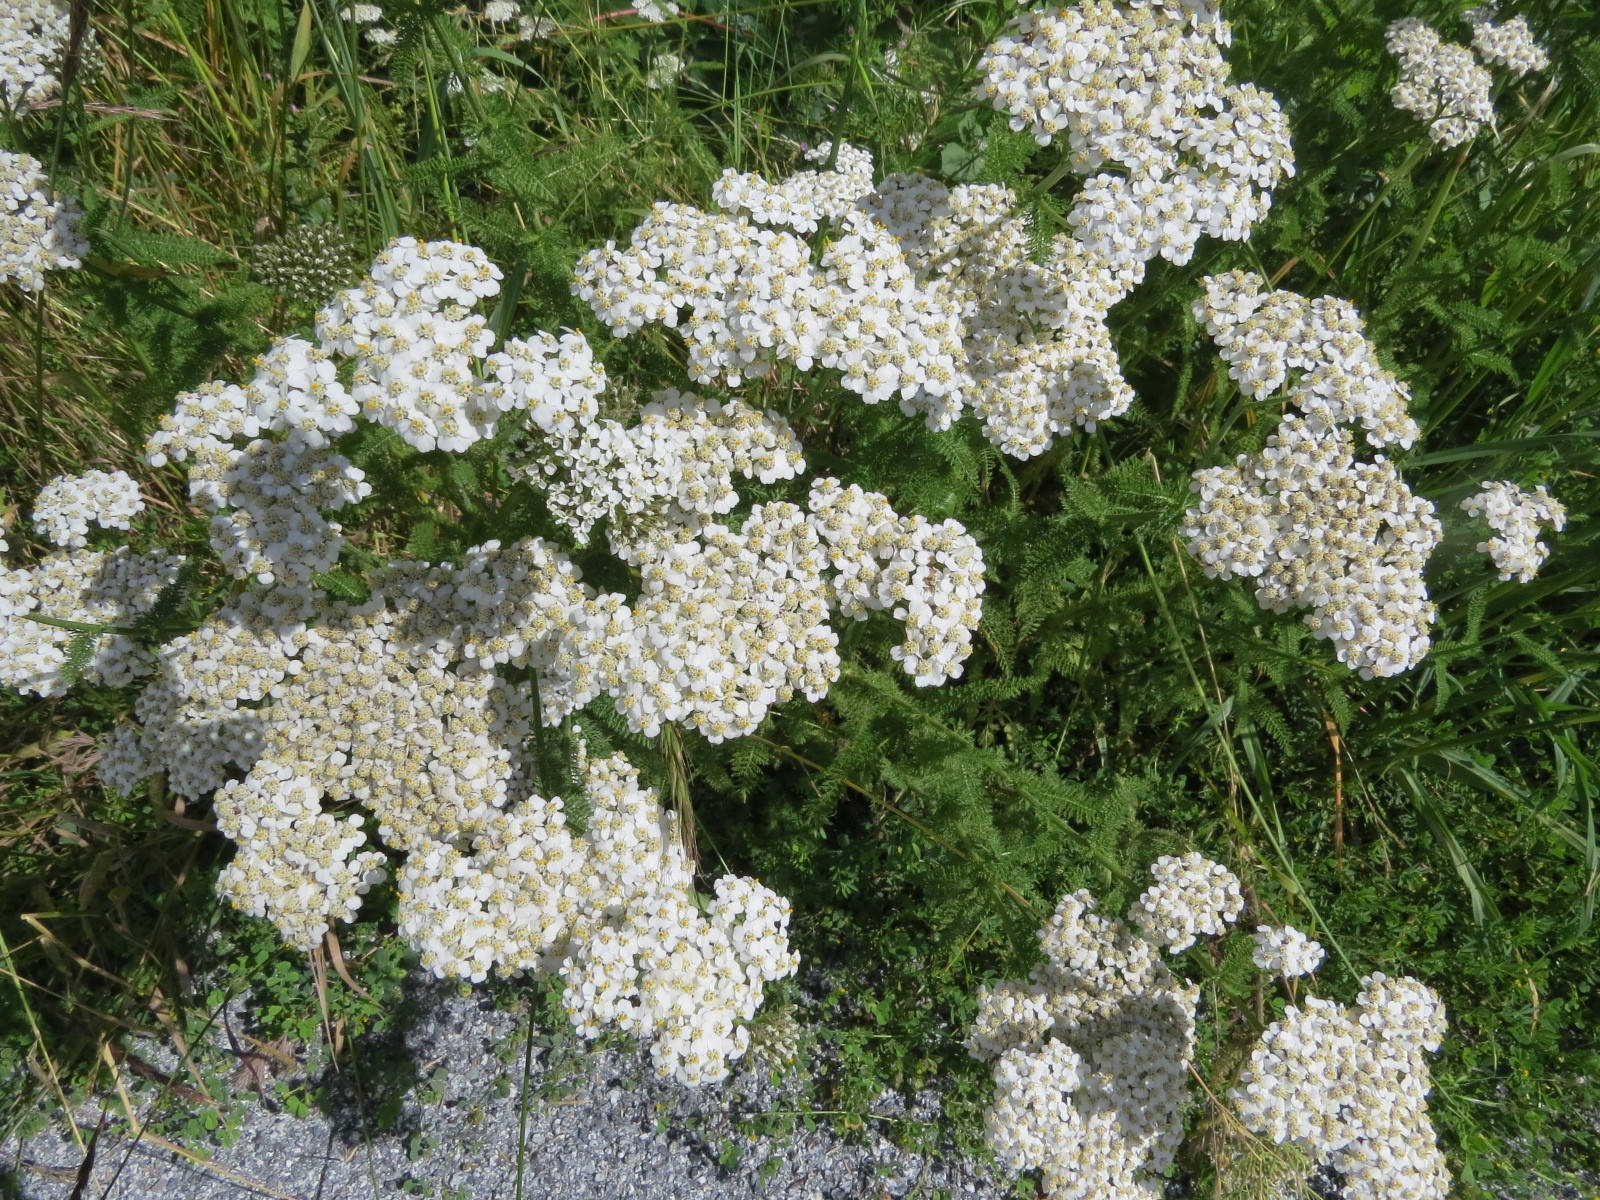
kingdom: Plantae
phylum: Tracheophyta
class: Magnoliopsida
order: Asterales
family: Asteraceae
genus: Achillea
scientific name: Achillea millefolium
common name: Yarrow
